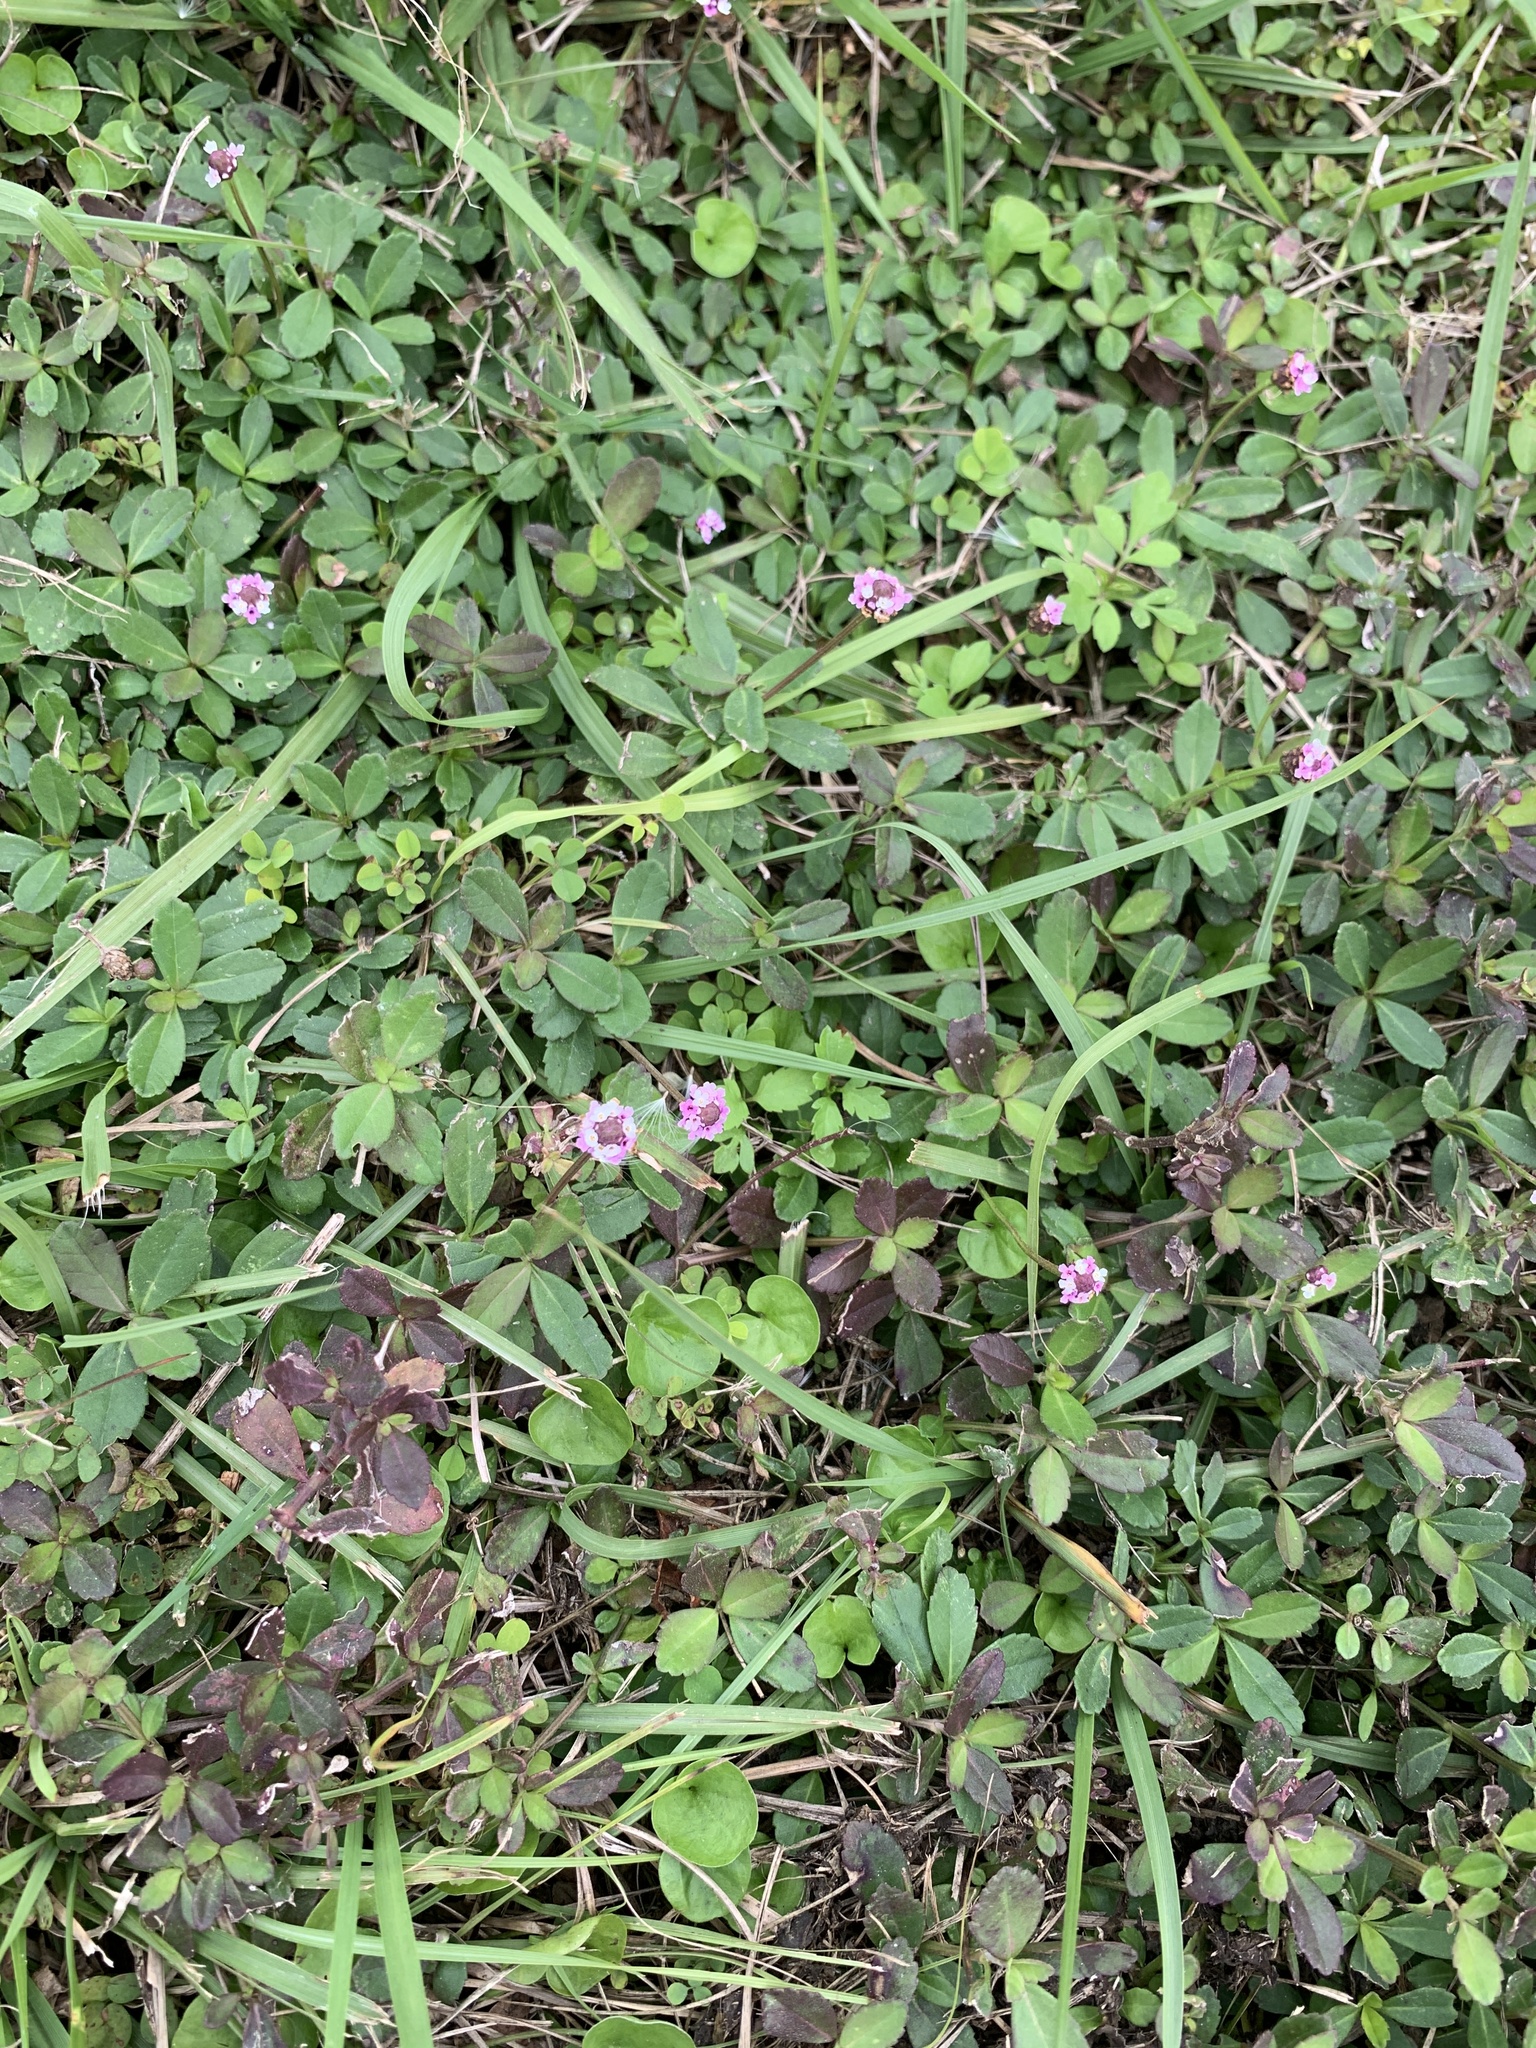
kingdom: Plantae
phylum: Tracheophyta
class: Magnoliopsida
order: Lamiales
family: Verbenaceae
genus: Phyla
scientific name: Phyla nodiflora
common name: Frogfruit
